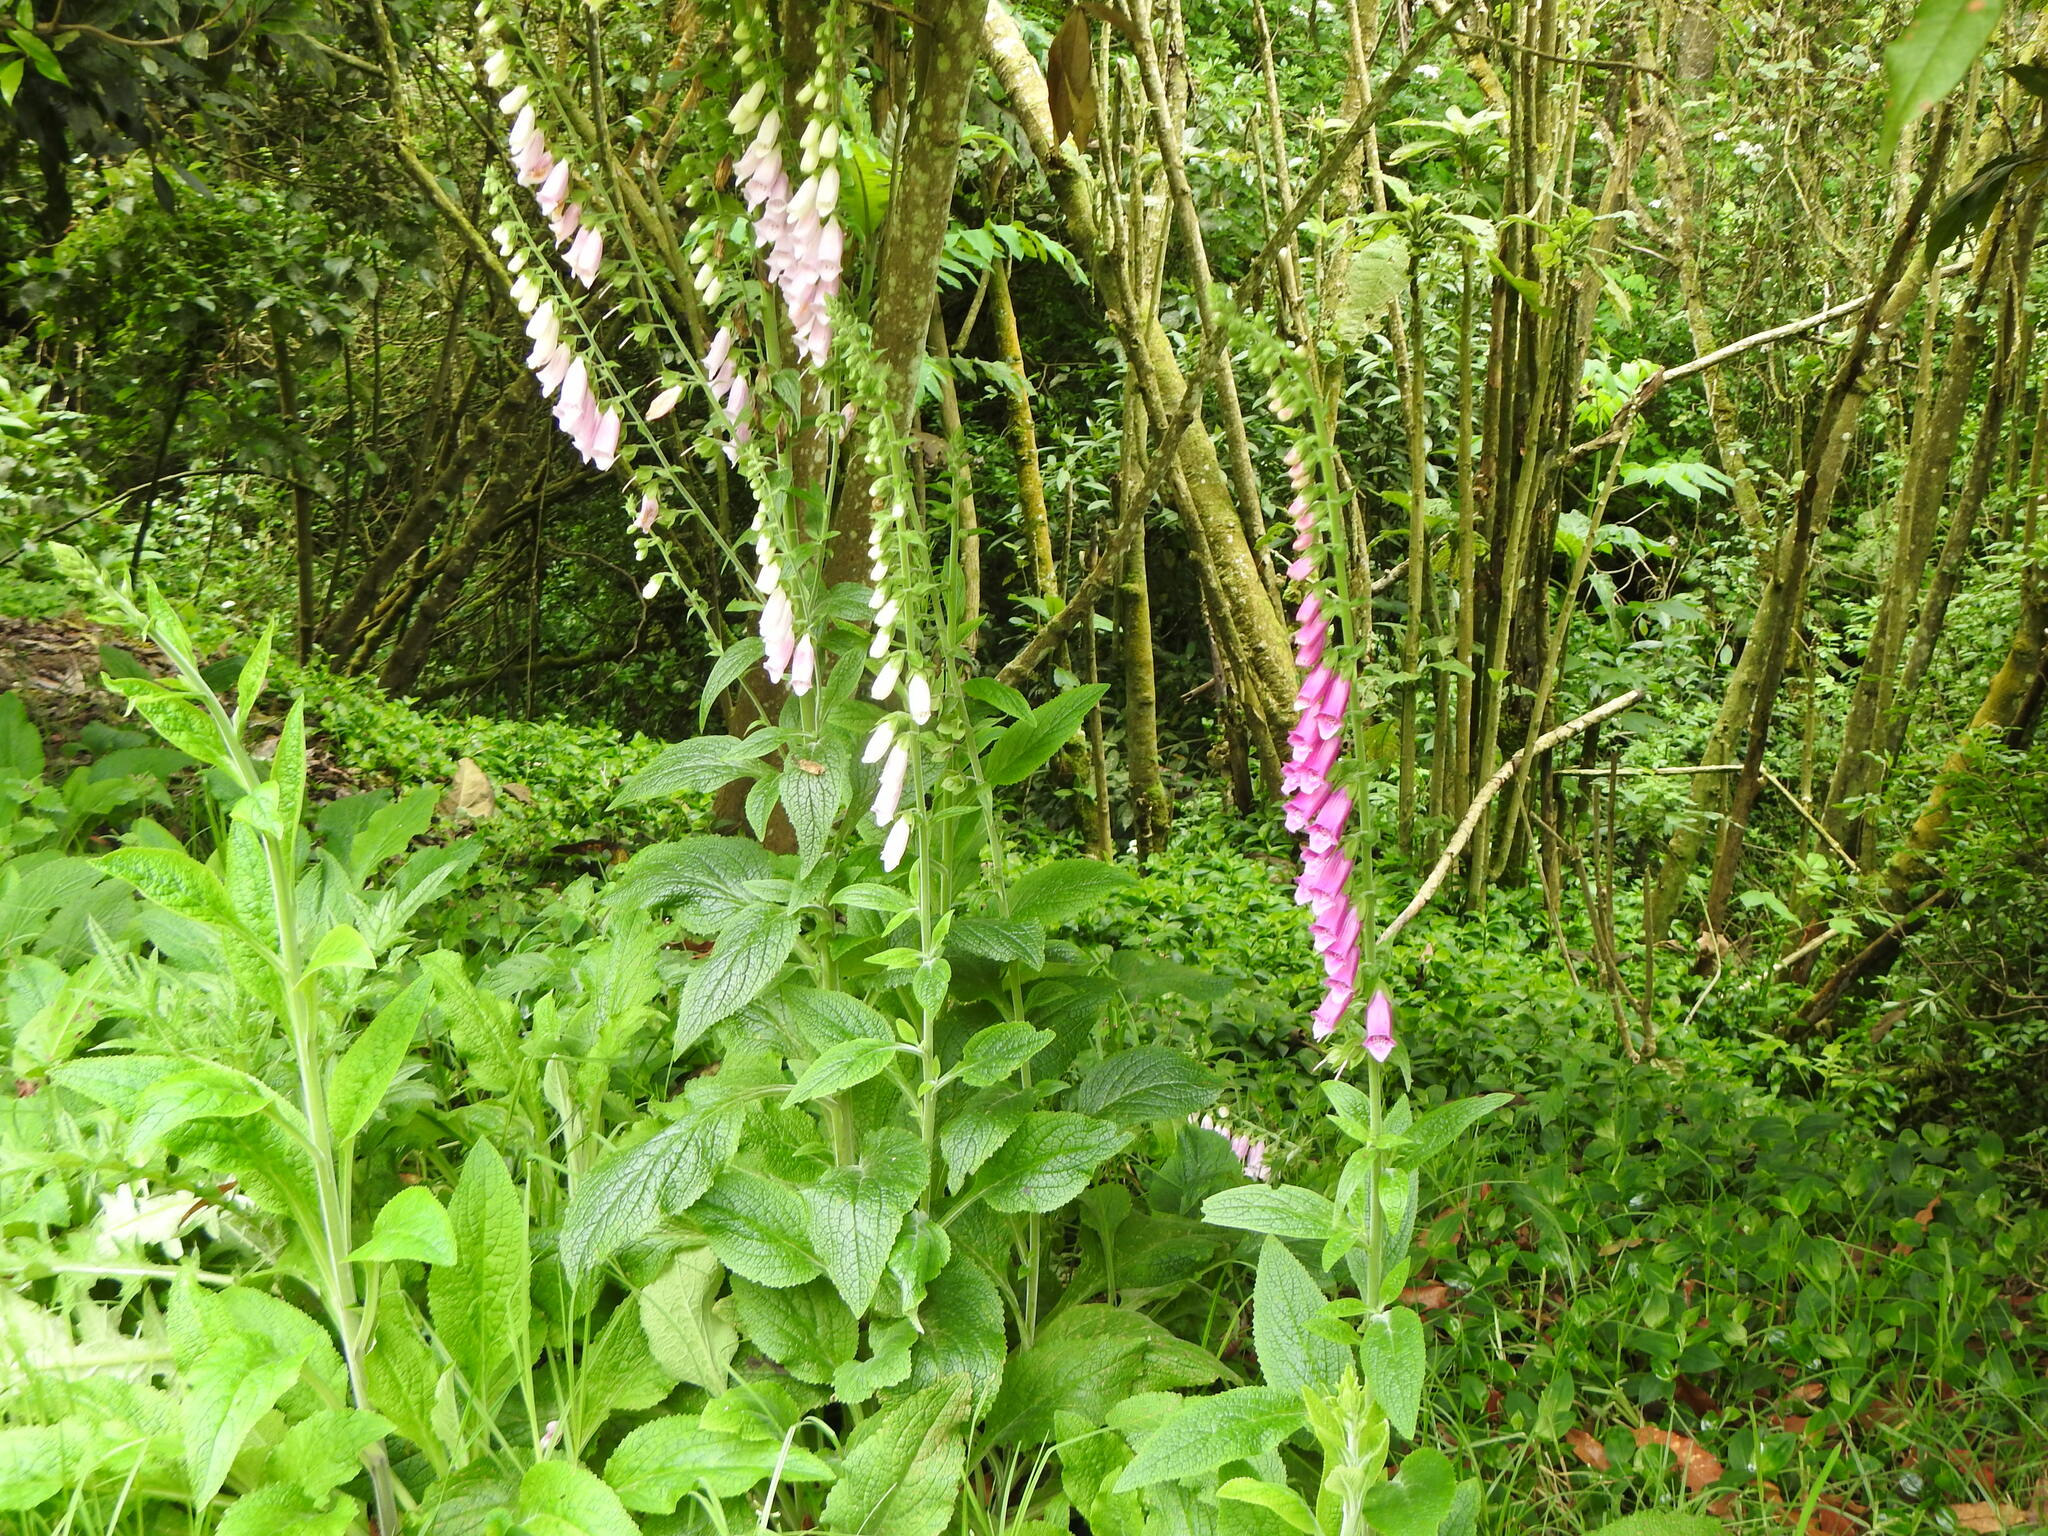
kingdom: Plantae
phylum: Tracheophyta
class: Magnoliopsida
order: Lamiales
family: Plantaginaceae
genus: Digitalis
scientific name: Digitalis purpurea
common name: Foxglove
